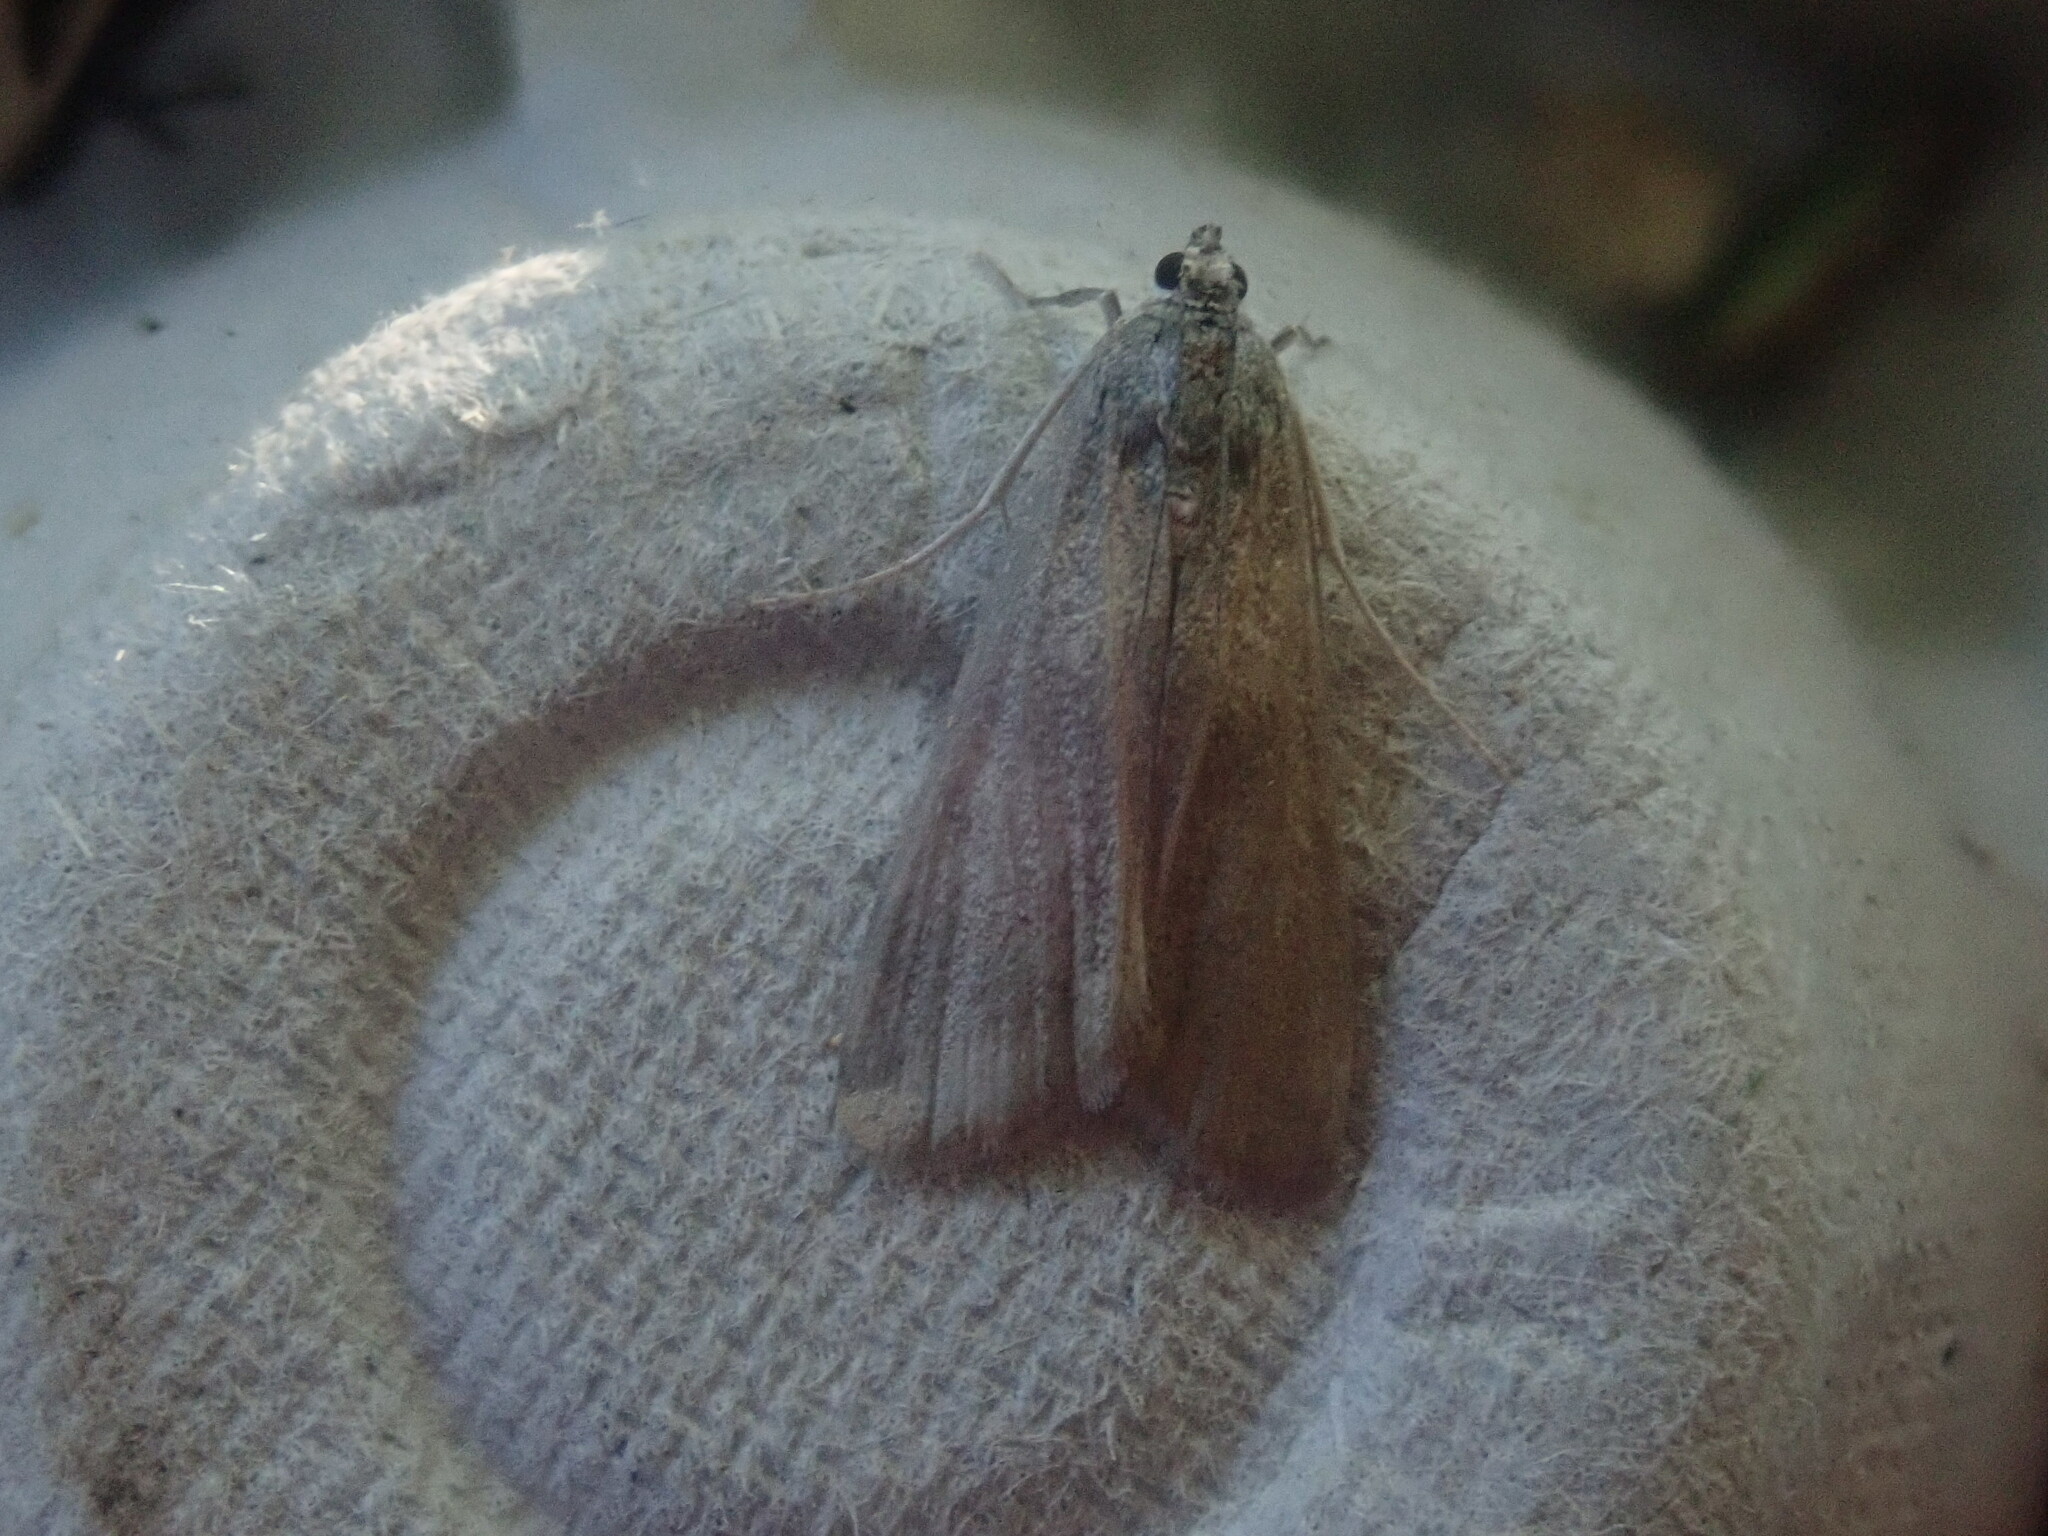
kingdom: Animalia
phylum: Arthropoda
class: Insecta
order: Lepidoptera
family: Crambidae
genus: Parapoynx
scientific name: Parapoynx maculalis
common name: Polymorphic pondweed moth
